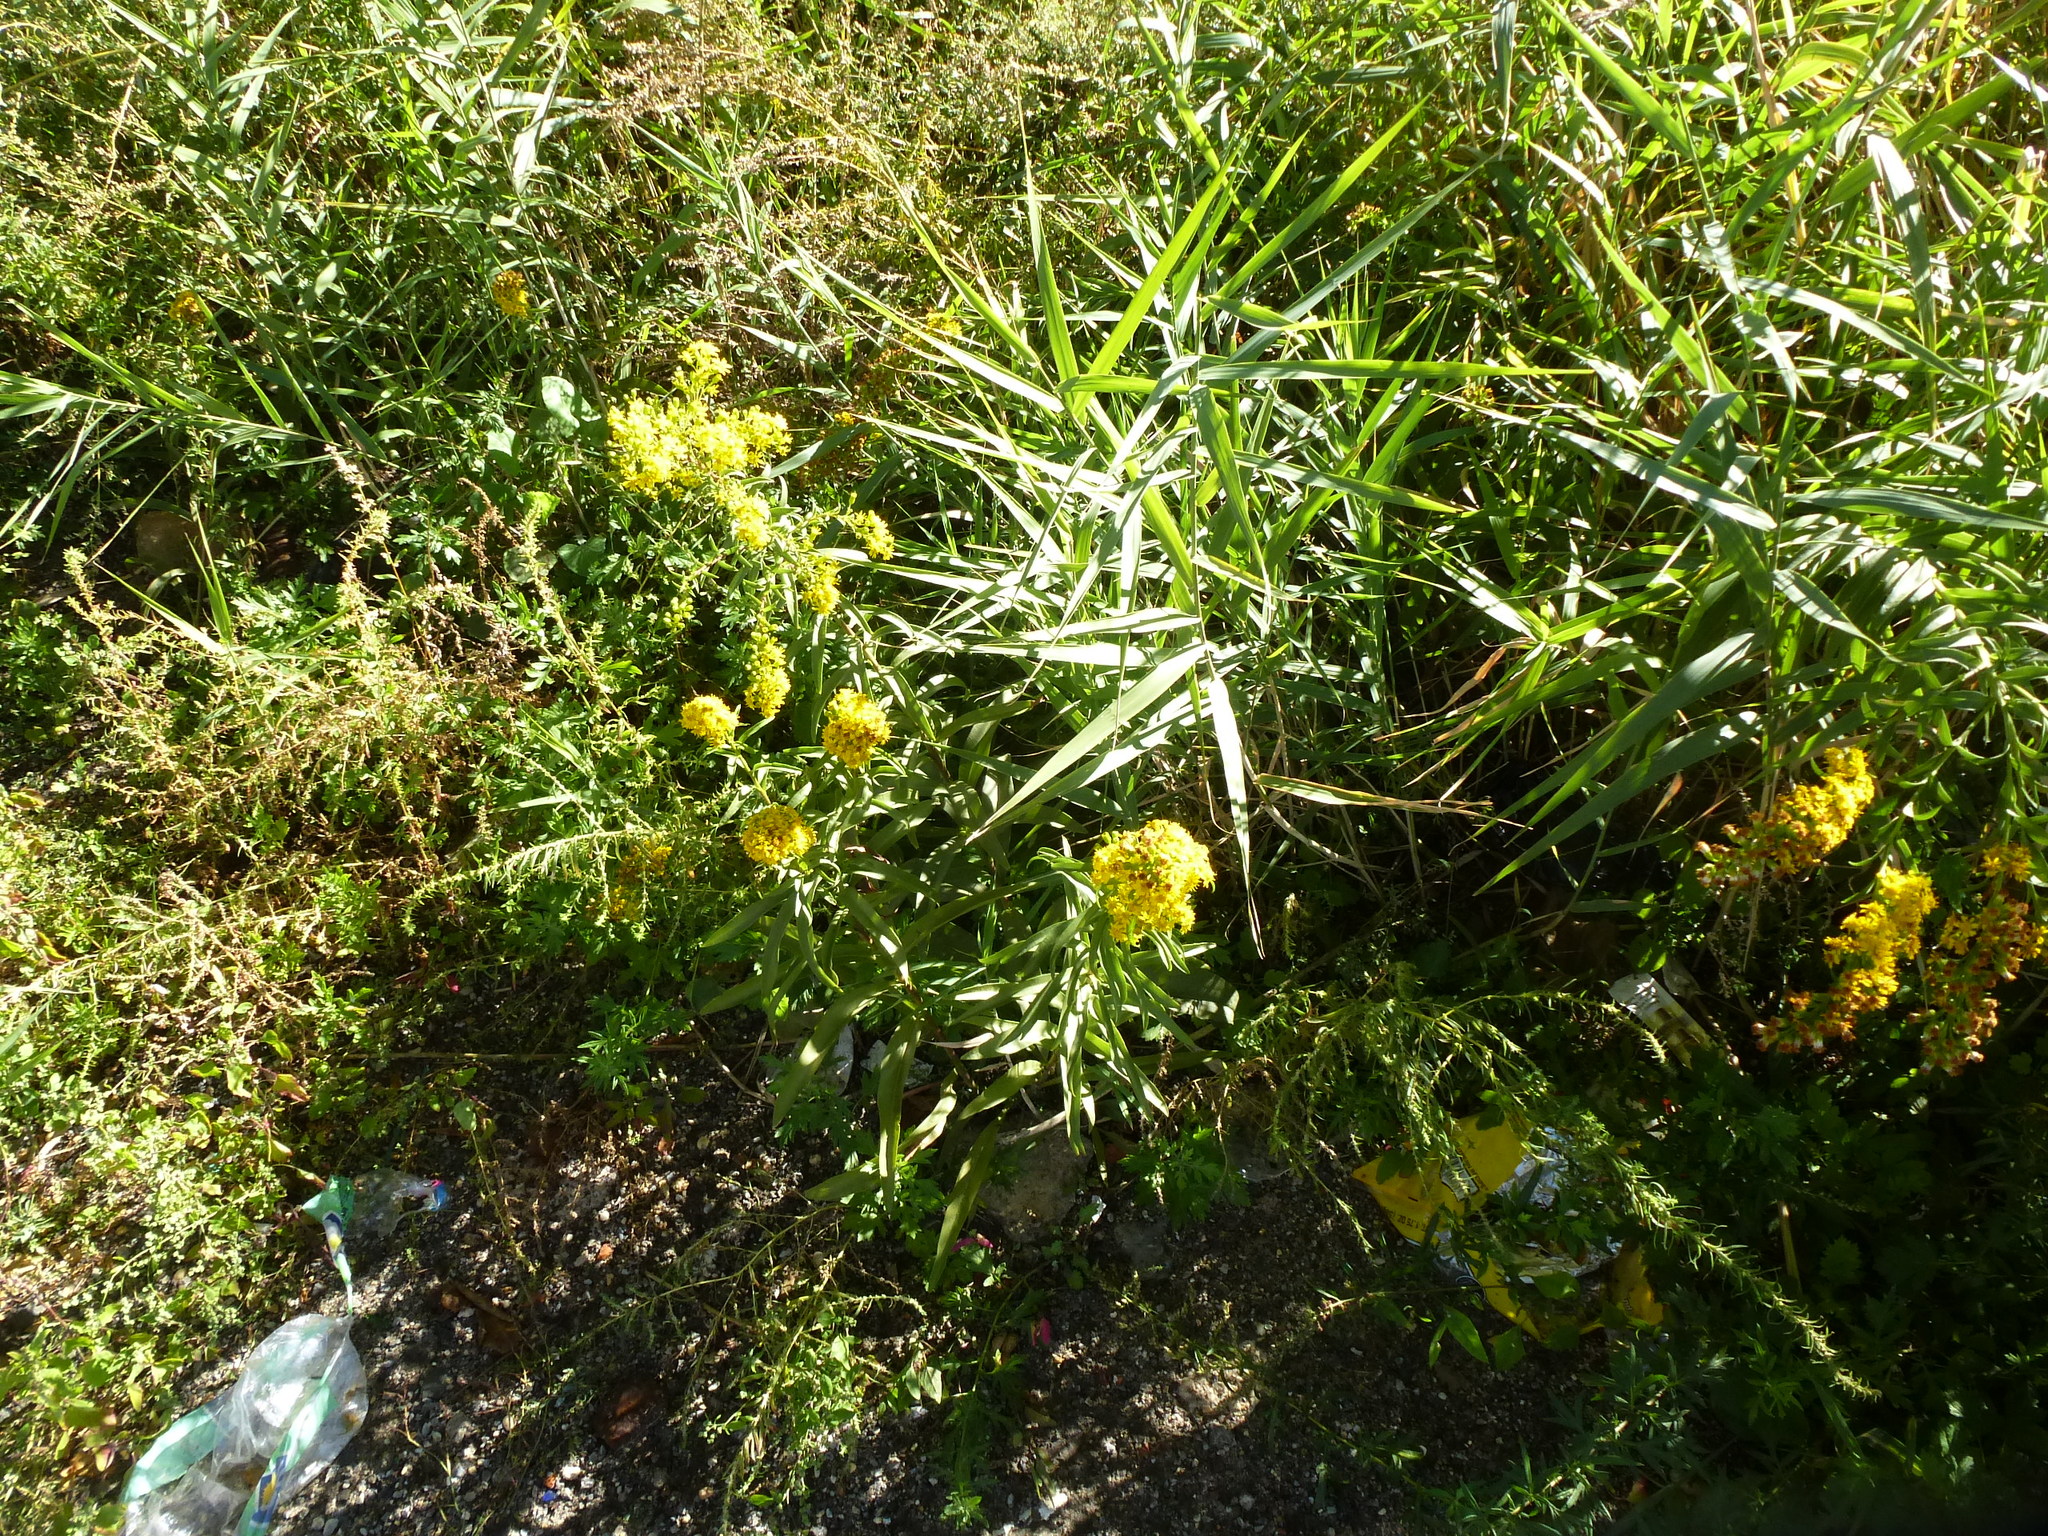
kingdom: Plantae
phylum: Tracheophyta
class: Magnoliopsida
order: Asterales
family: Asteraceae
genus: Solidago
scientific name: Solidago sempervirens
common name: Salt-marsh goldenrod
